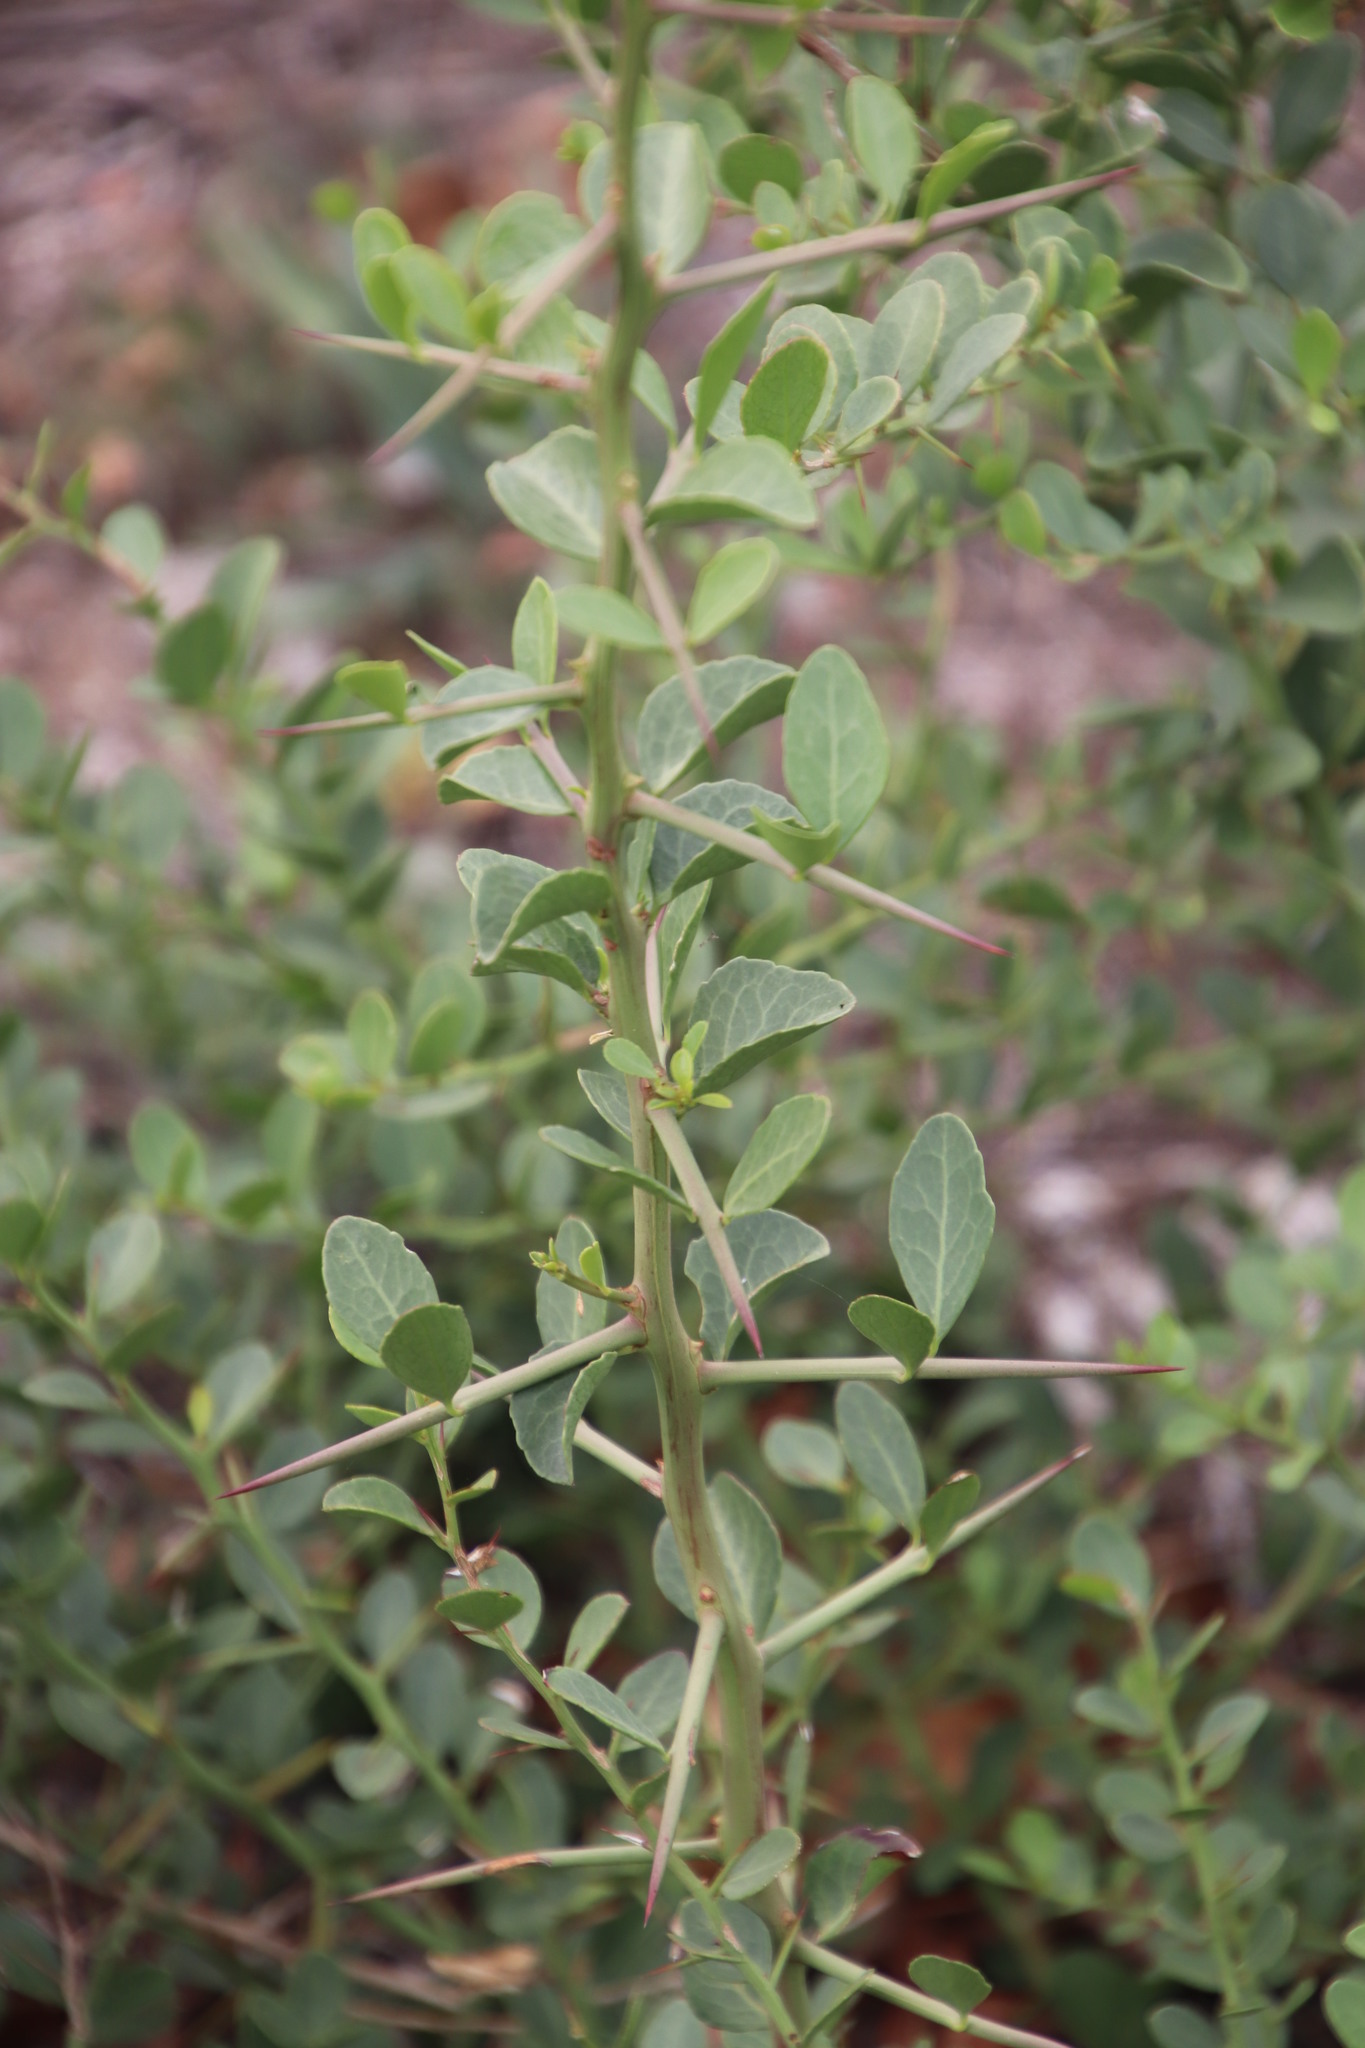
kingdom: Plantae
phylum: Tracheophyta
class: Magnoliopsida
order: Celastrales
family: Celastraceae
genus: Gymnosporia
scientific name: Gymnosporia buxifolia
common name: Common spike-thorn
